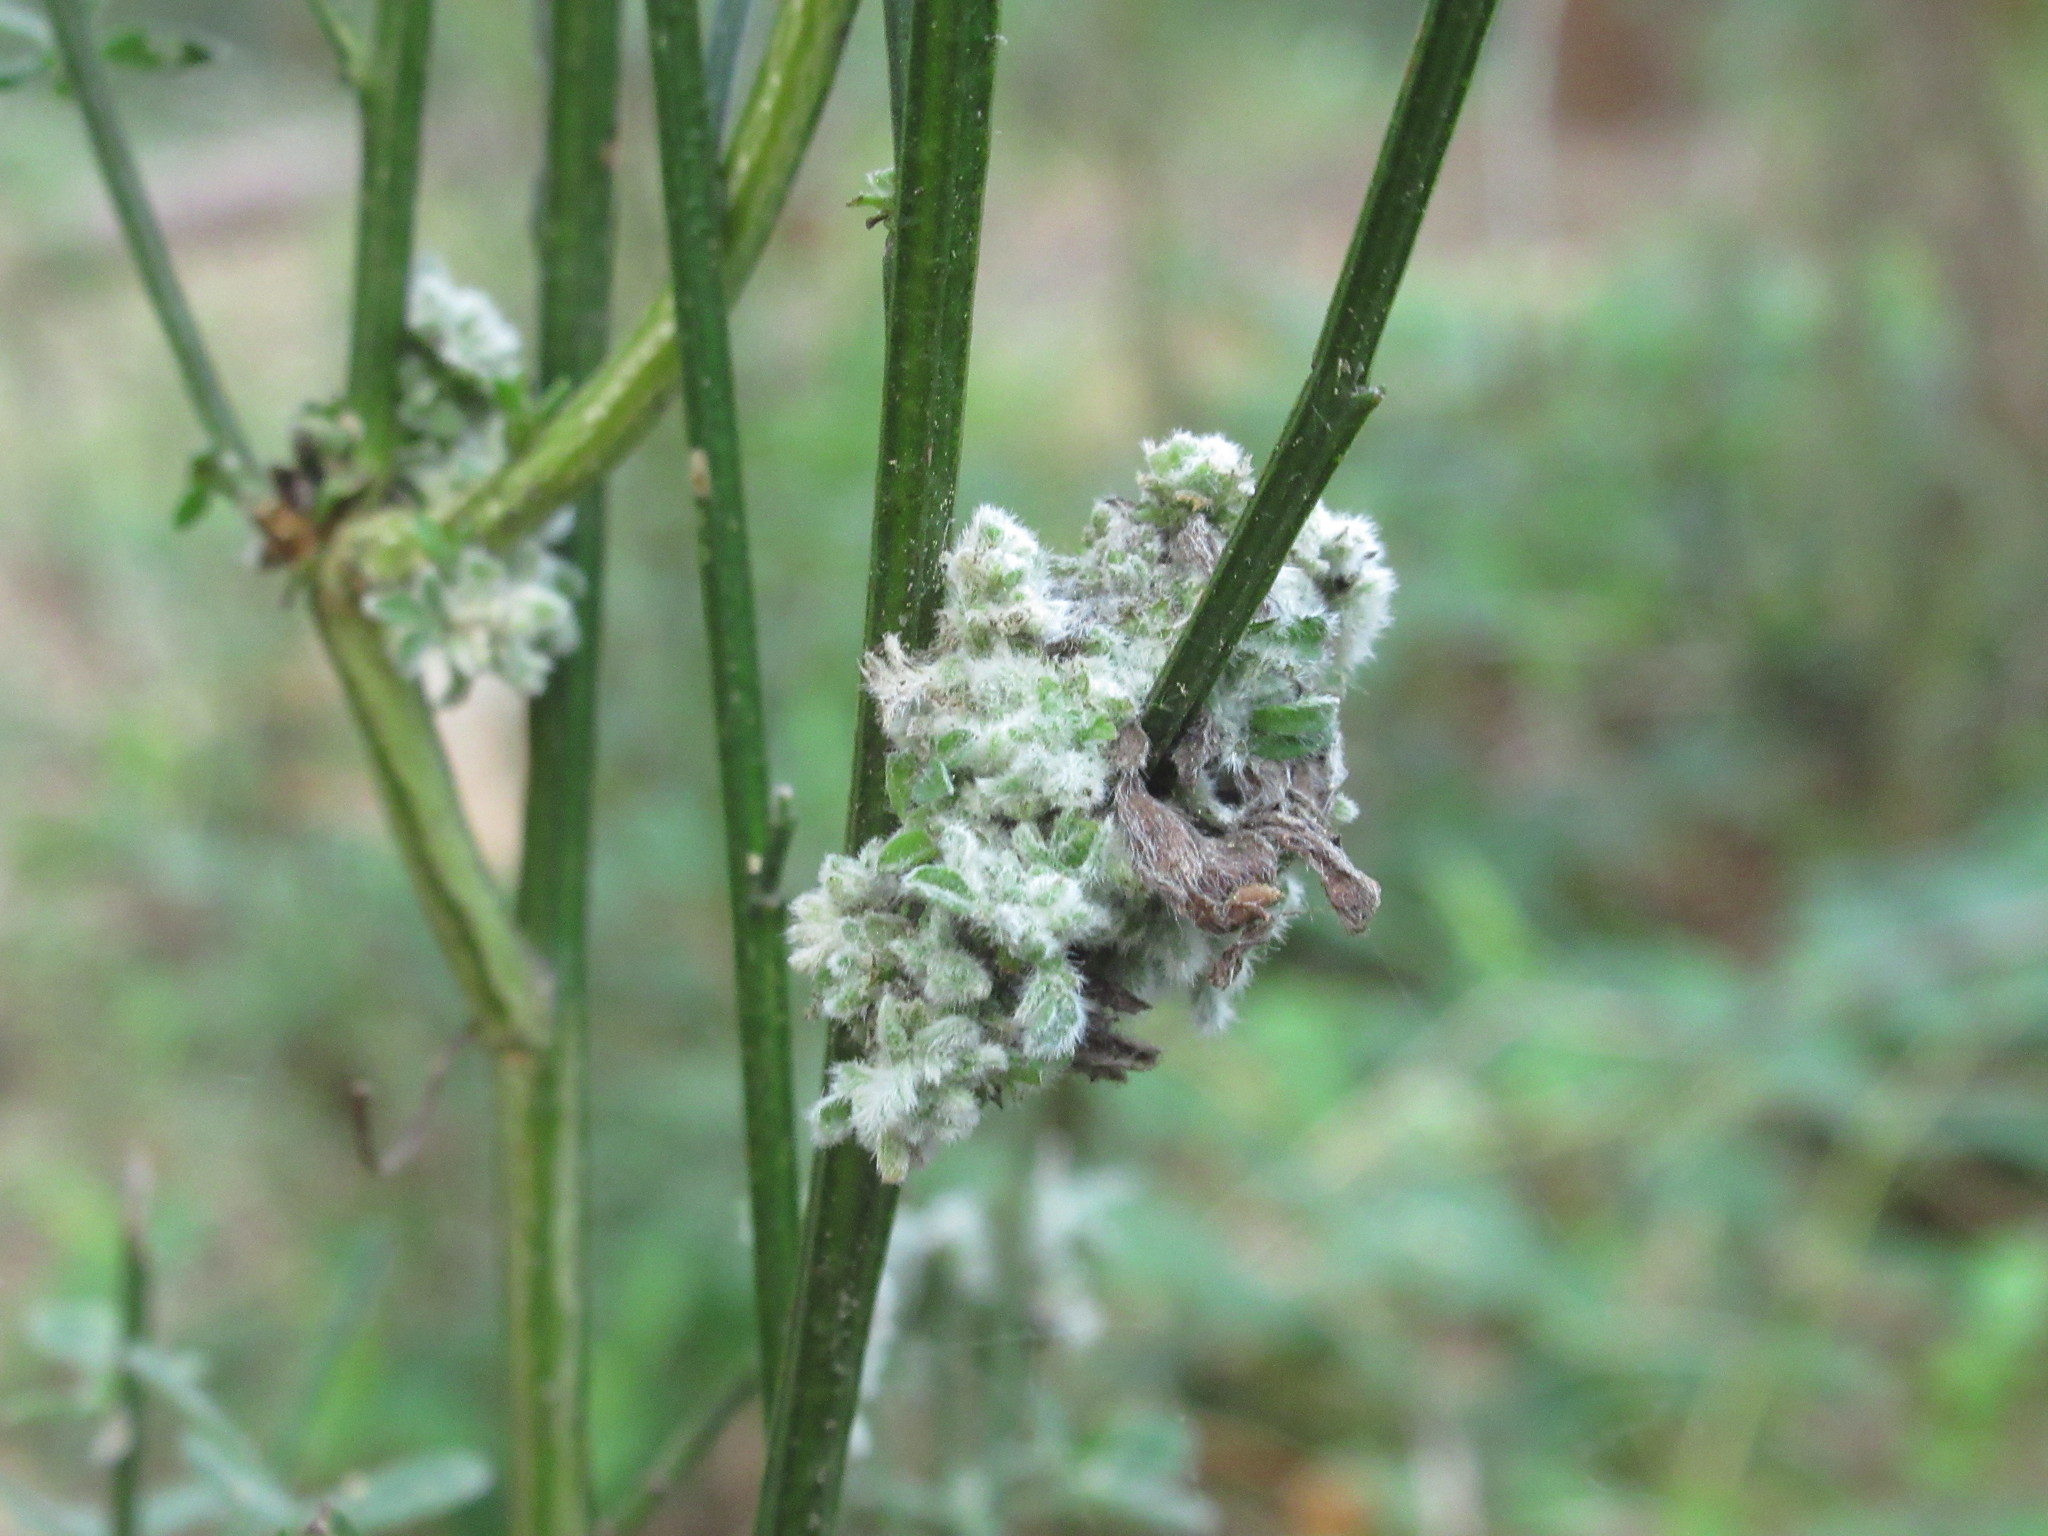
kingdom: Animalia
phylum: Arthropoda
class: Arachnida
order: Trombidiformes
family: Eriophyidae
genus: Aceria
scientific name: Aceria genistae
